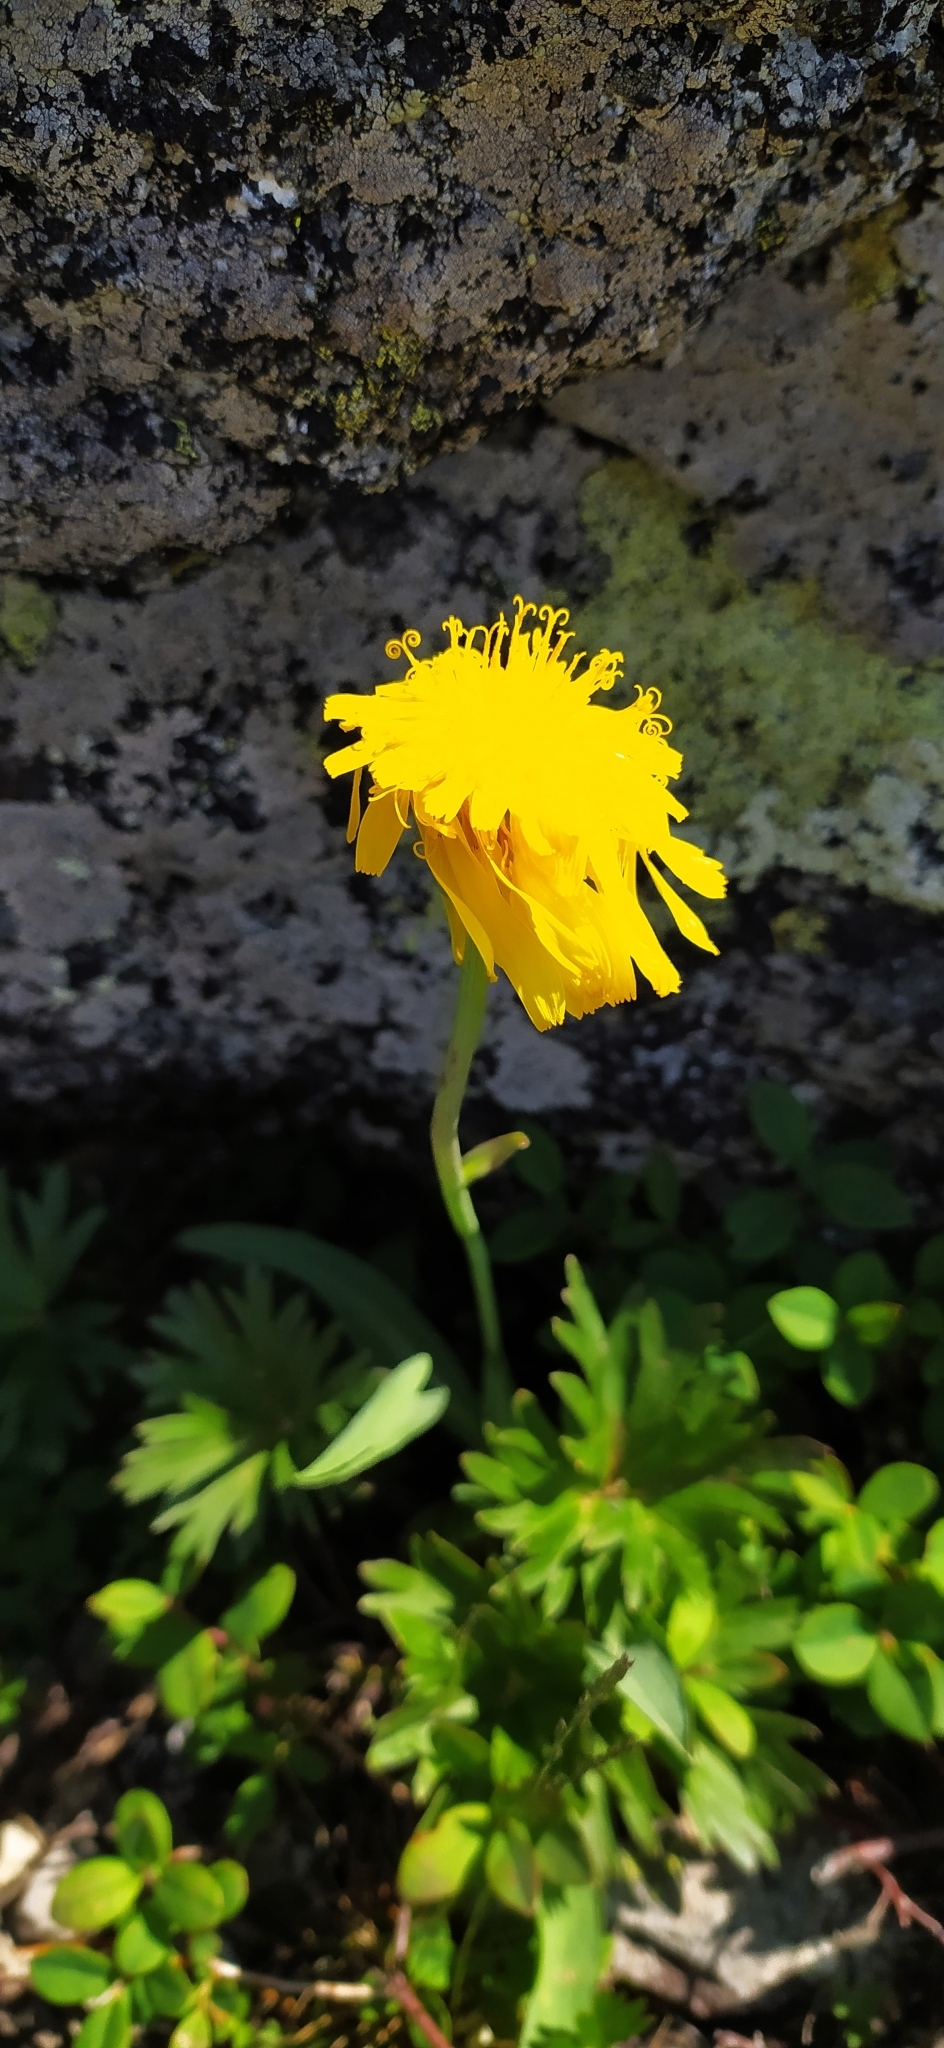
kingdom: Plantae
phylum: Tracheophyta
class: Magnoliopsida
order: Asterales
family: Asteraceae
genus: Scorzonera
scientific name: Scorzonera glabra
